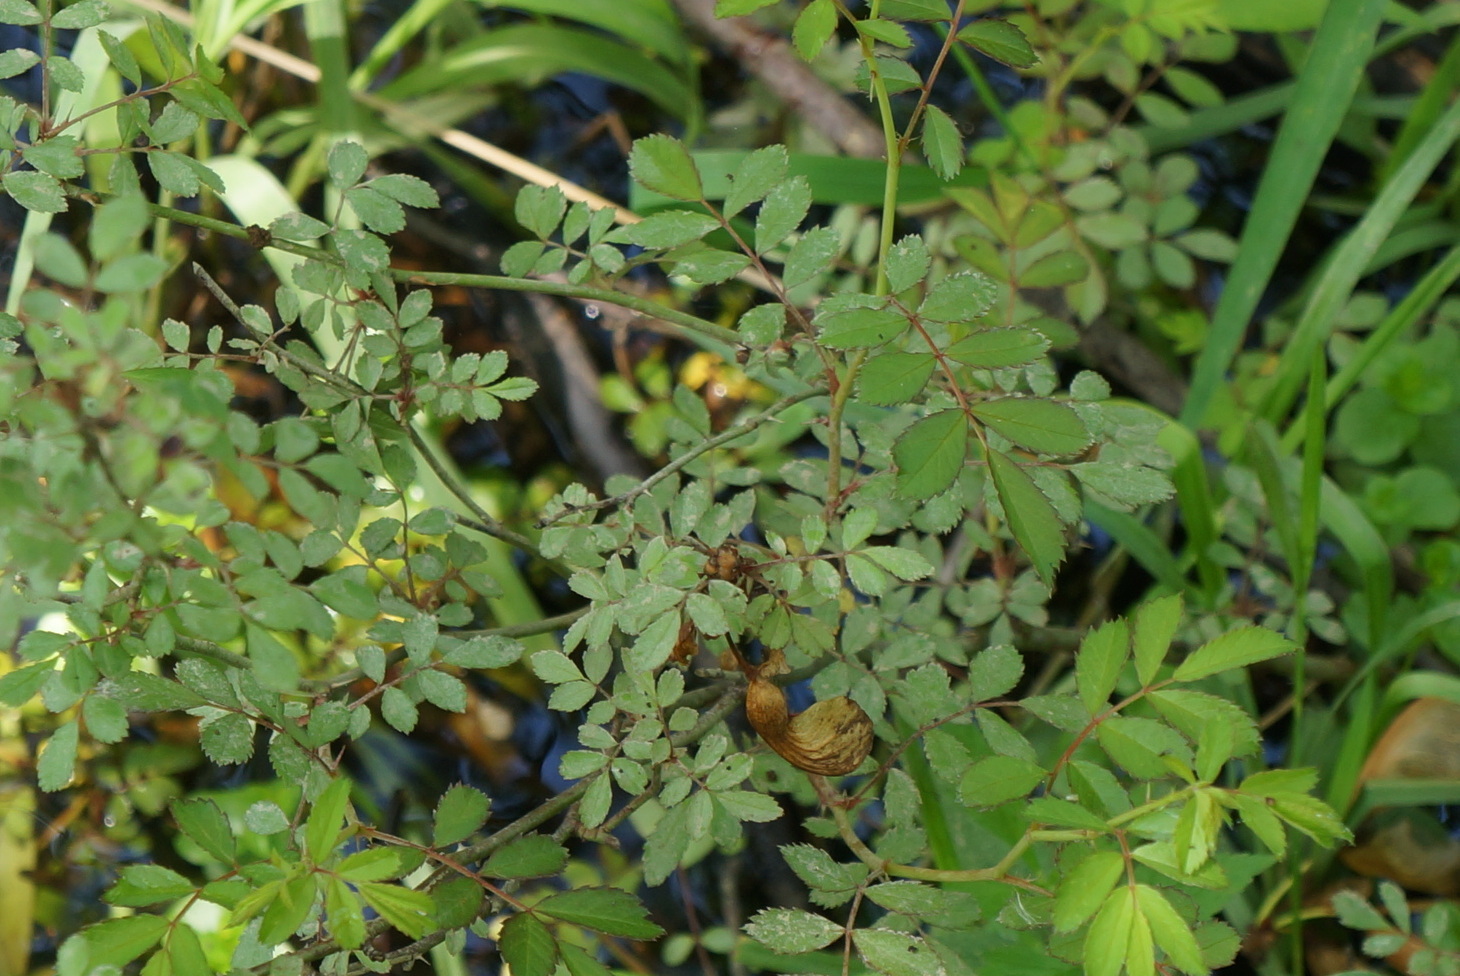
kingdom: Plantae
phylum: Tracheophyta
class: Magnoliopsida
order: Rosales
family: Rosaceae
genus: Rosa
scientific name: Rosa multiflora
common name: Multiflora rose
